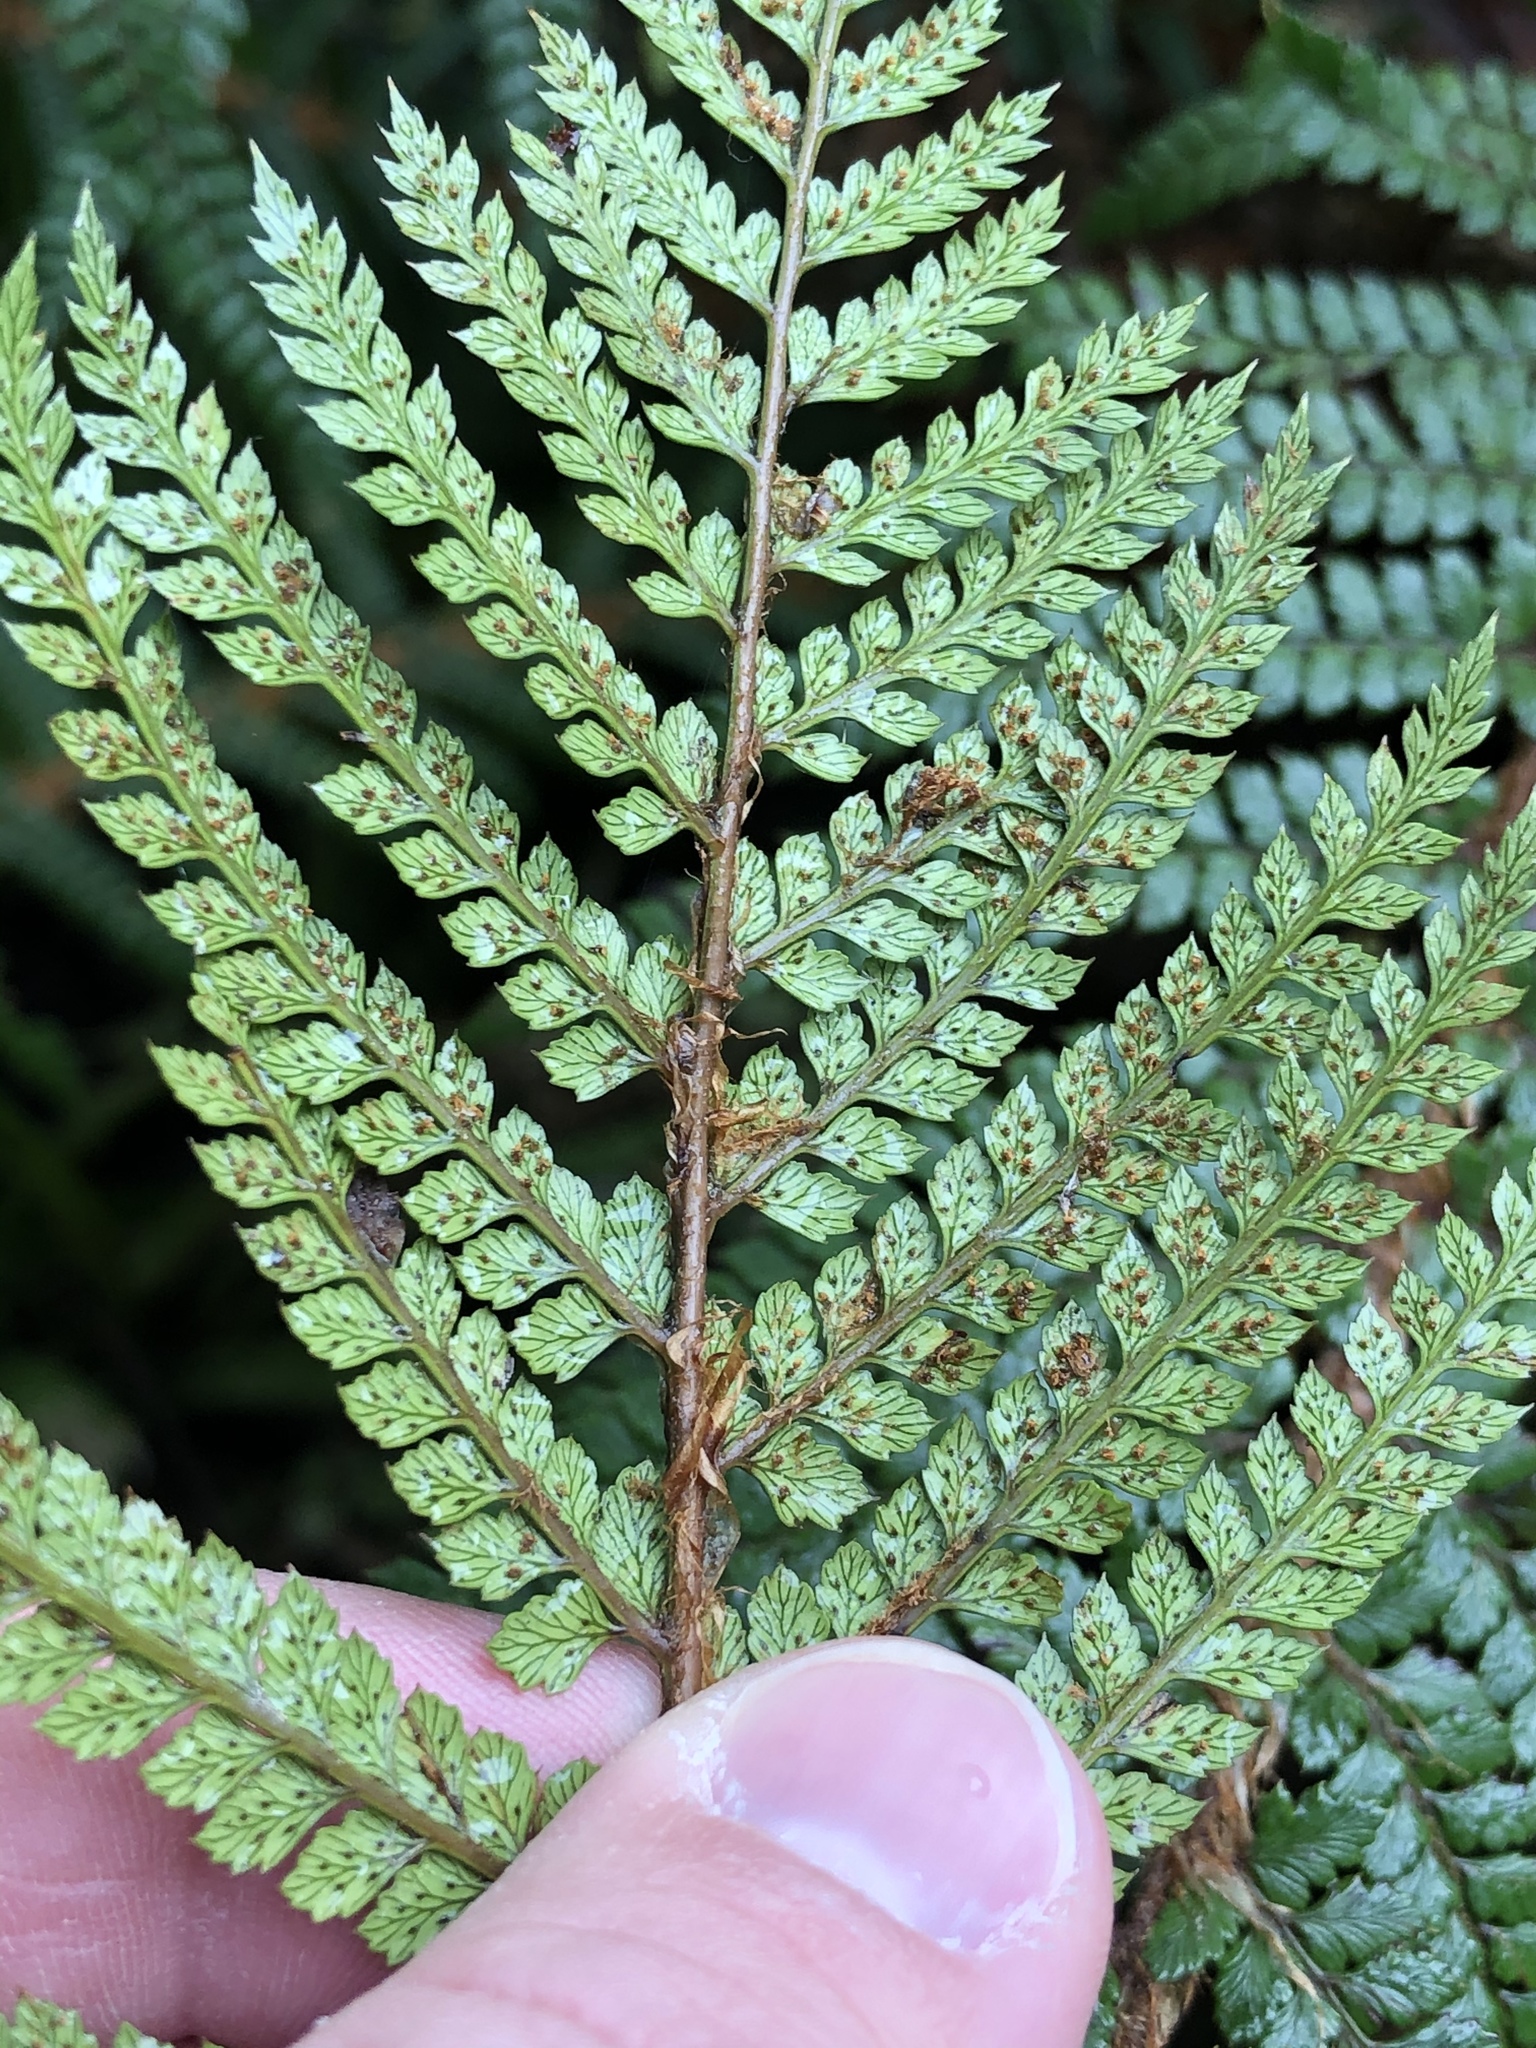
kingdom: Plantae
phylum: Tracheophyta
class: Polypodiopsida
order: Polypodiales
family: Dryopteridaceae
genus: Polystichum
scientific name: Polystichum vestitum
